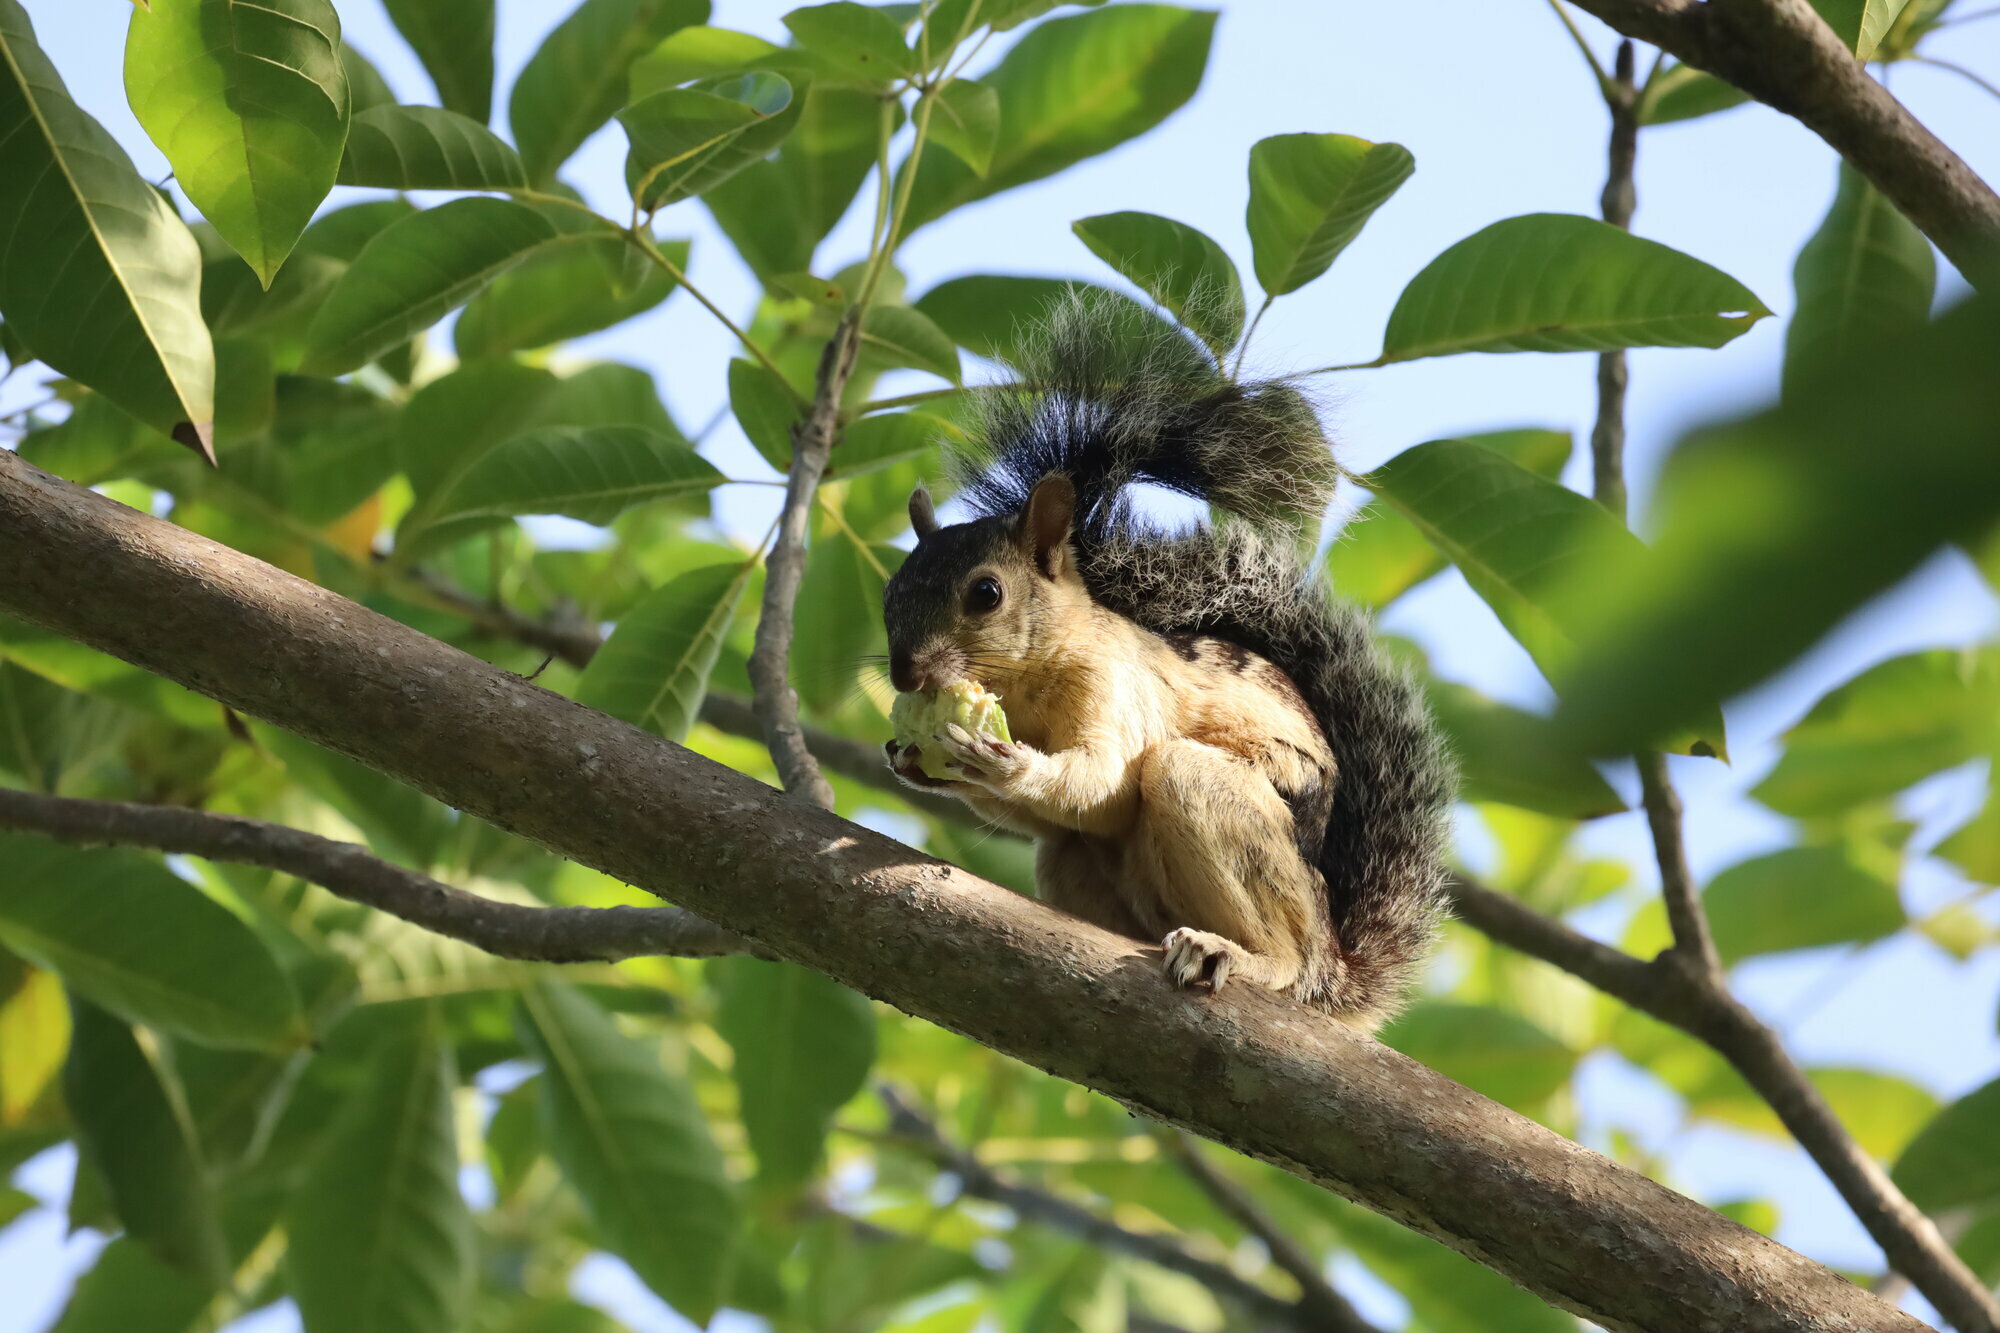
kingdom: Animalia
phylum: Chordata
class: Mammalia
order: Rodentia
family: Sciuridae
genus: Sciurus
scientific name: Sciurus variegatoides
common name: Variegated squirrel
